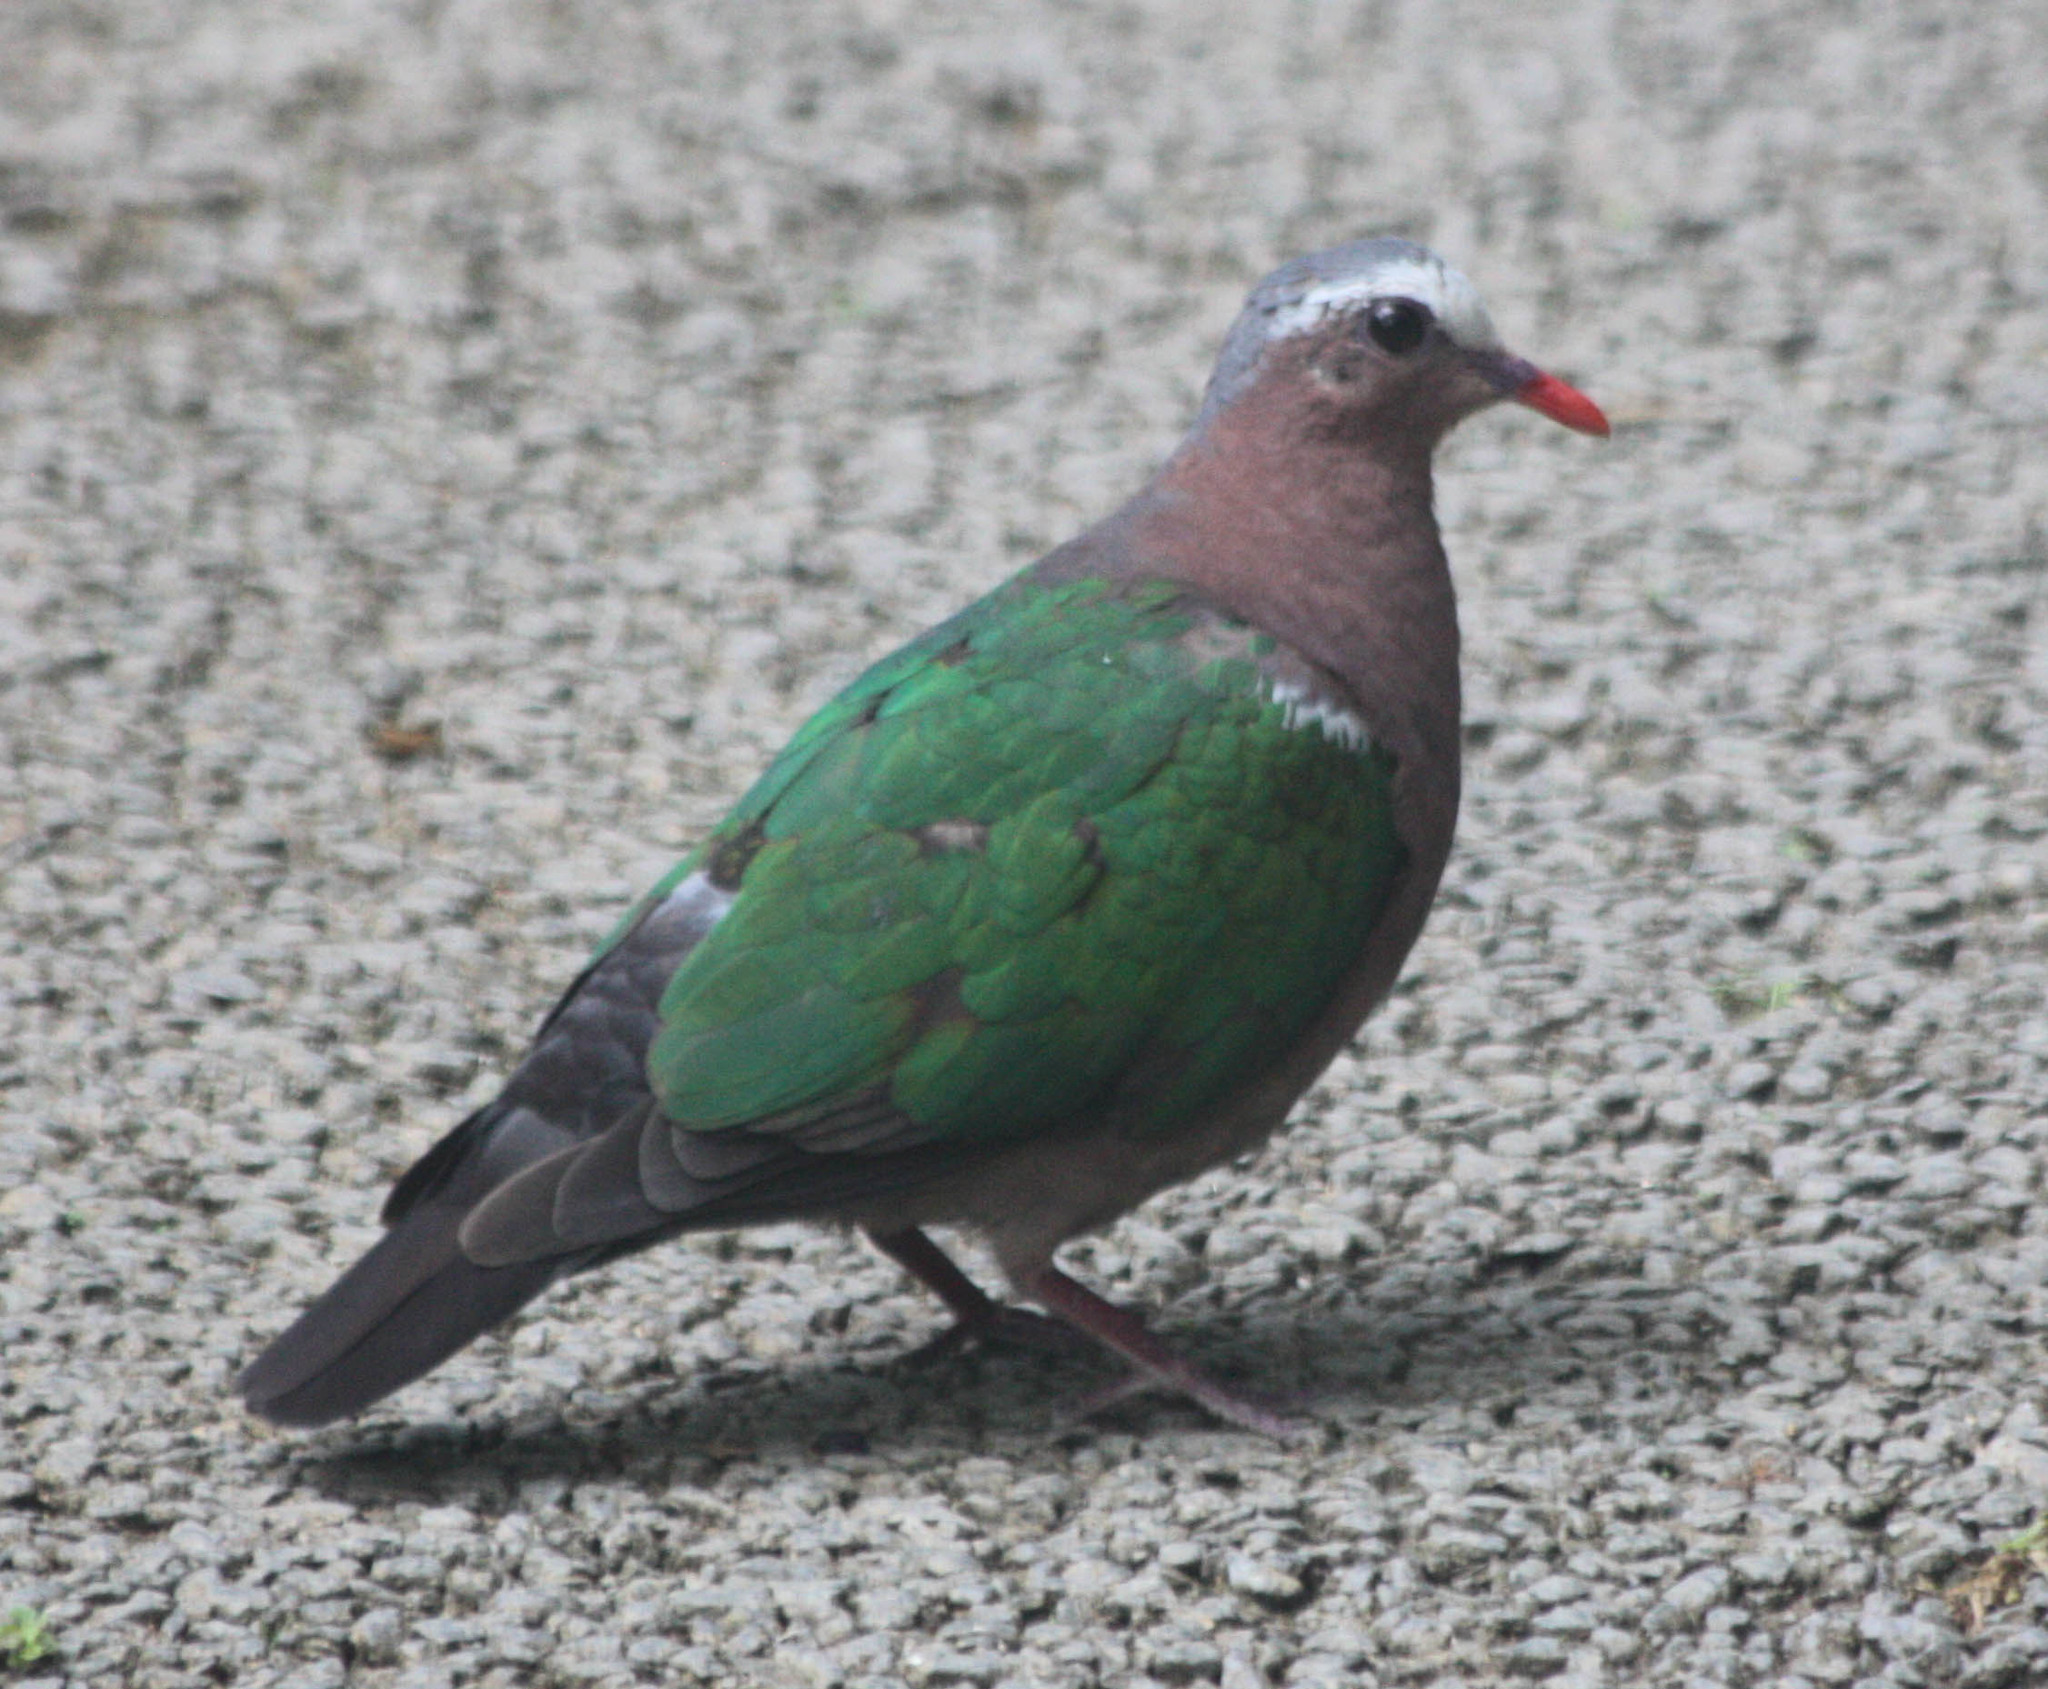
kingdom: Animalia
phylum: Chordata
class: Aves
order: Columbiformes
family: Columbidae
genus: Chalcophaps
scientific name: Chalcophaps indica
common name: Common emerald dove
